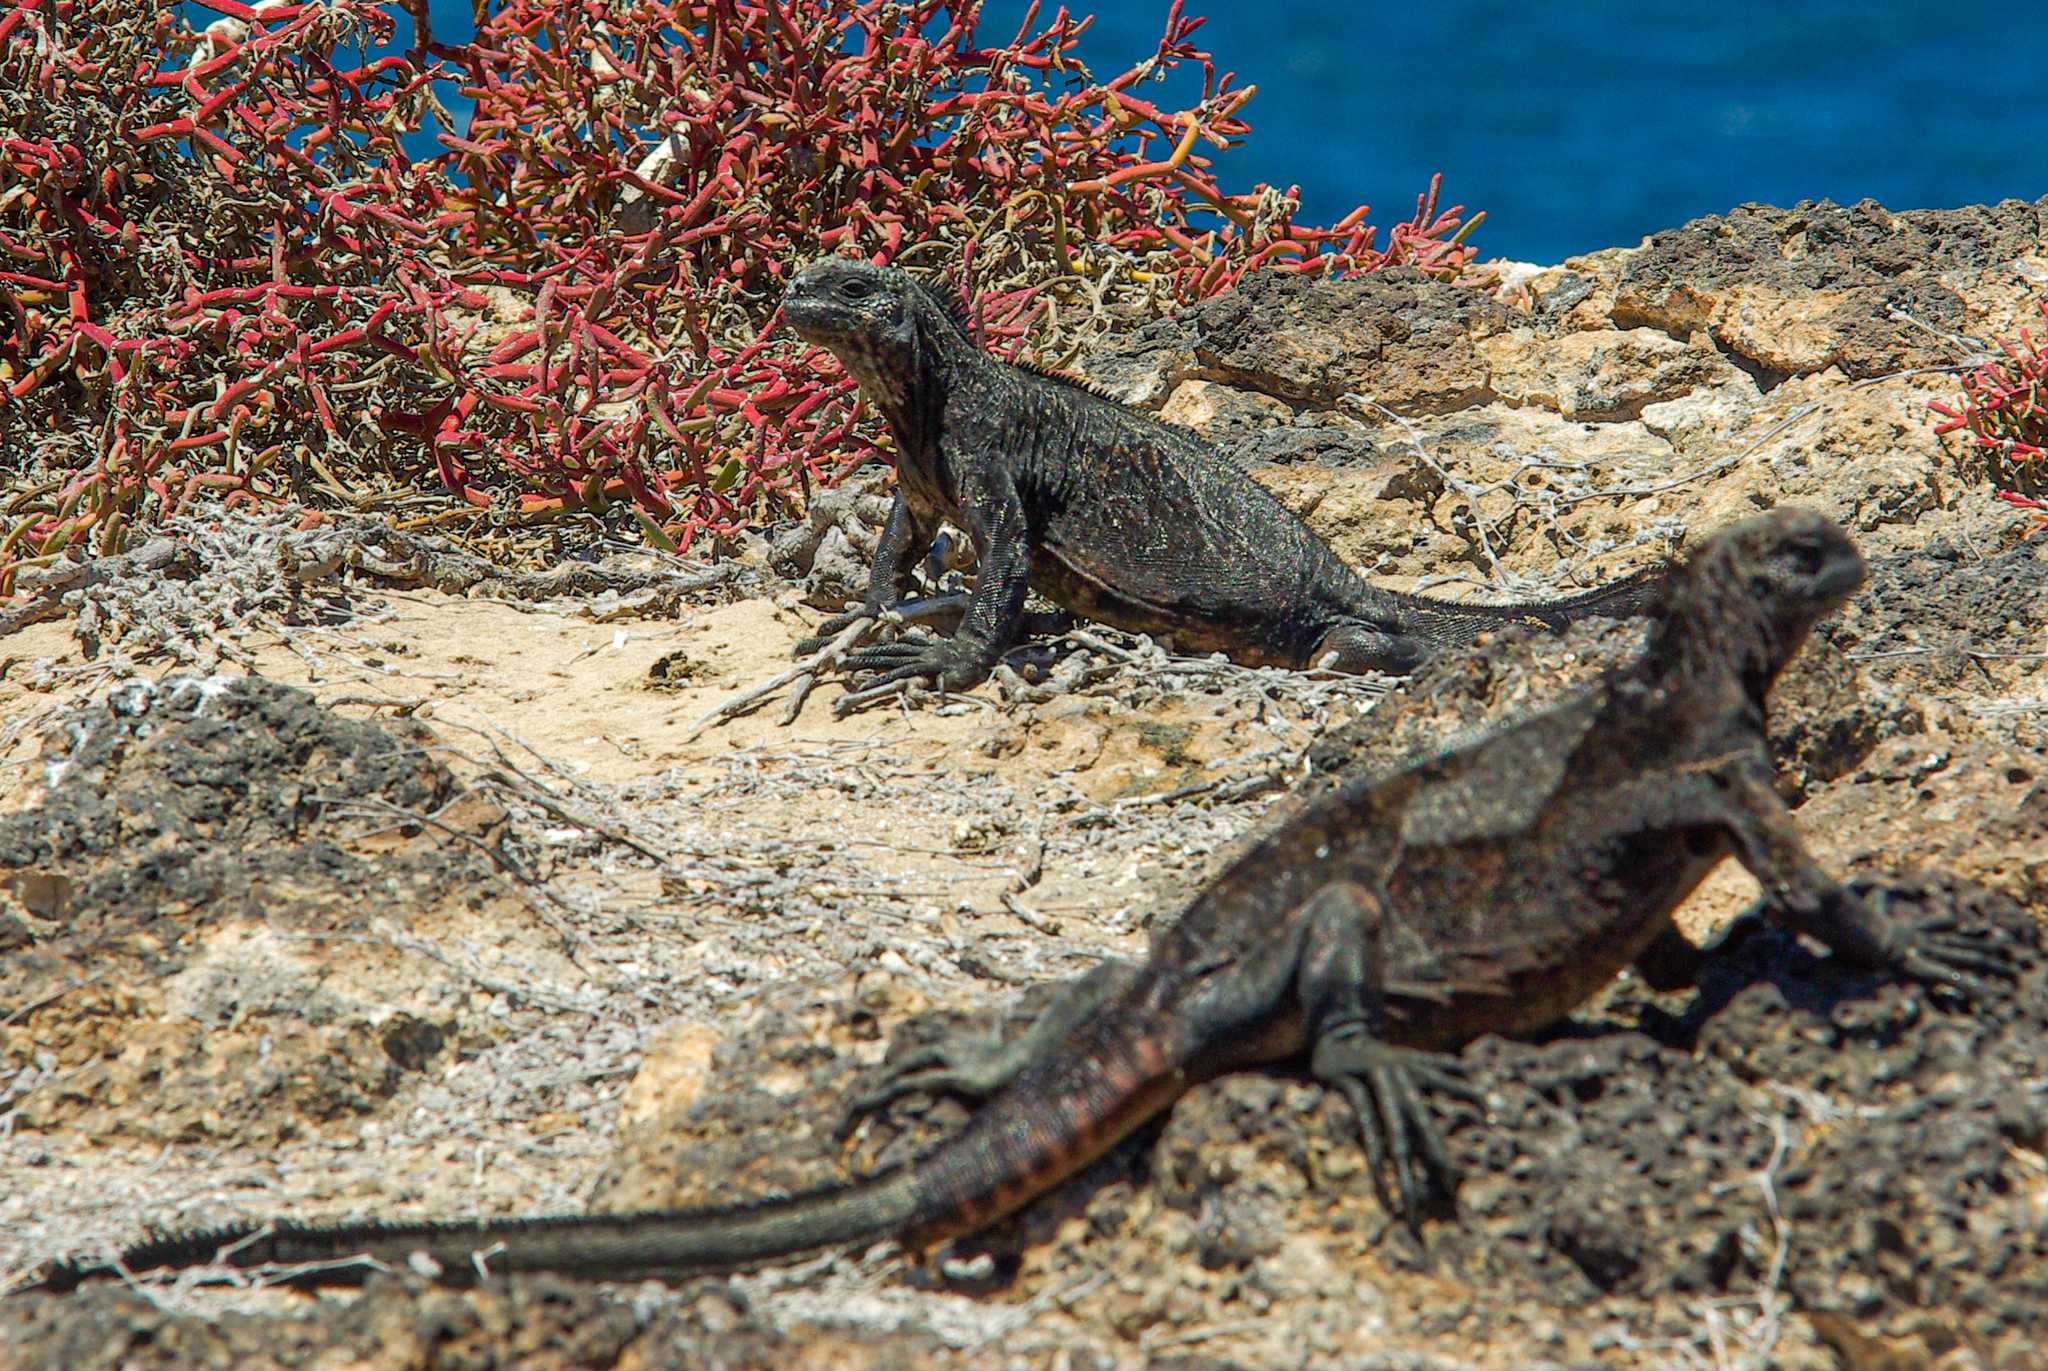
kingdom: Animalia
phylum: Chordata
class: Squamata
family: Iguanidae
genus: Amblyrhynchus
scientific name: Amblyrhynchus cristatus
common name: Marine iguana
